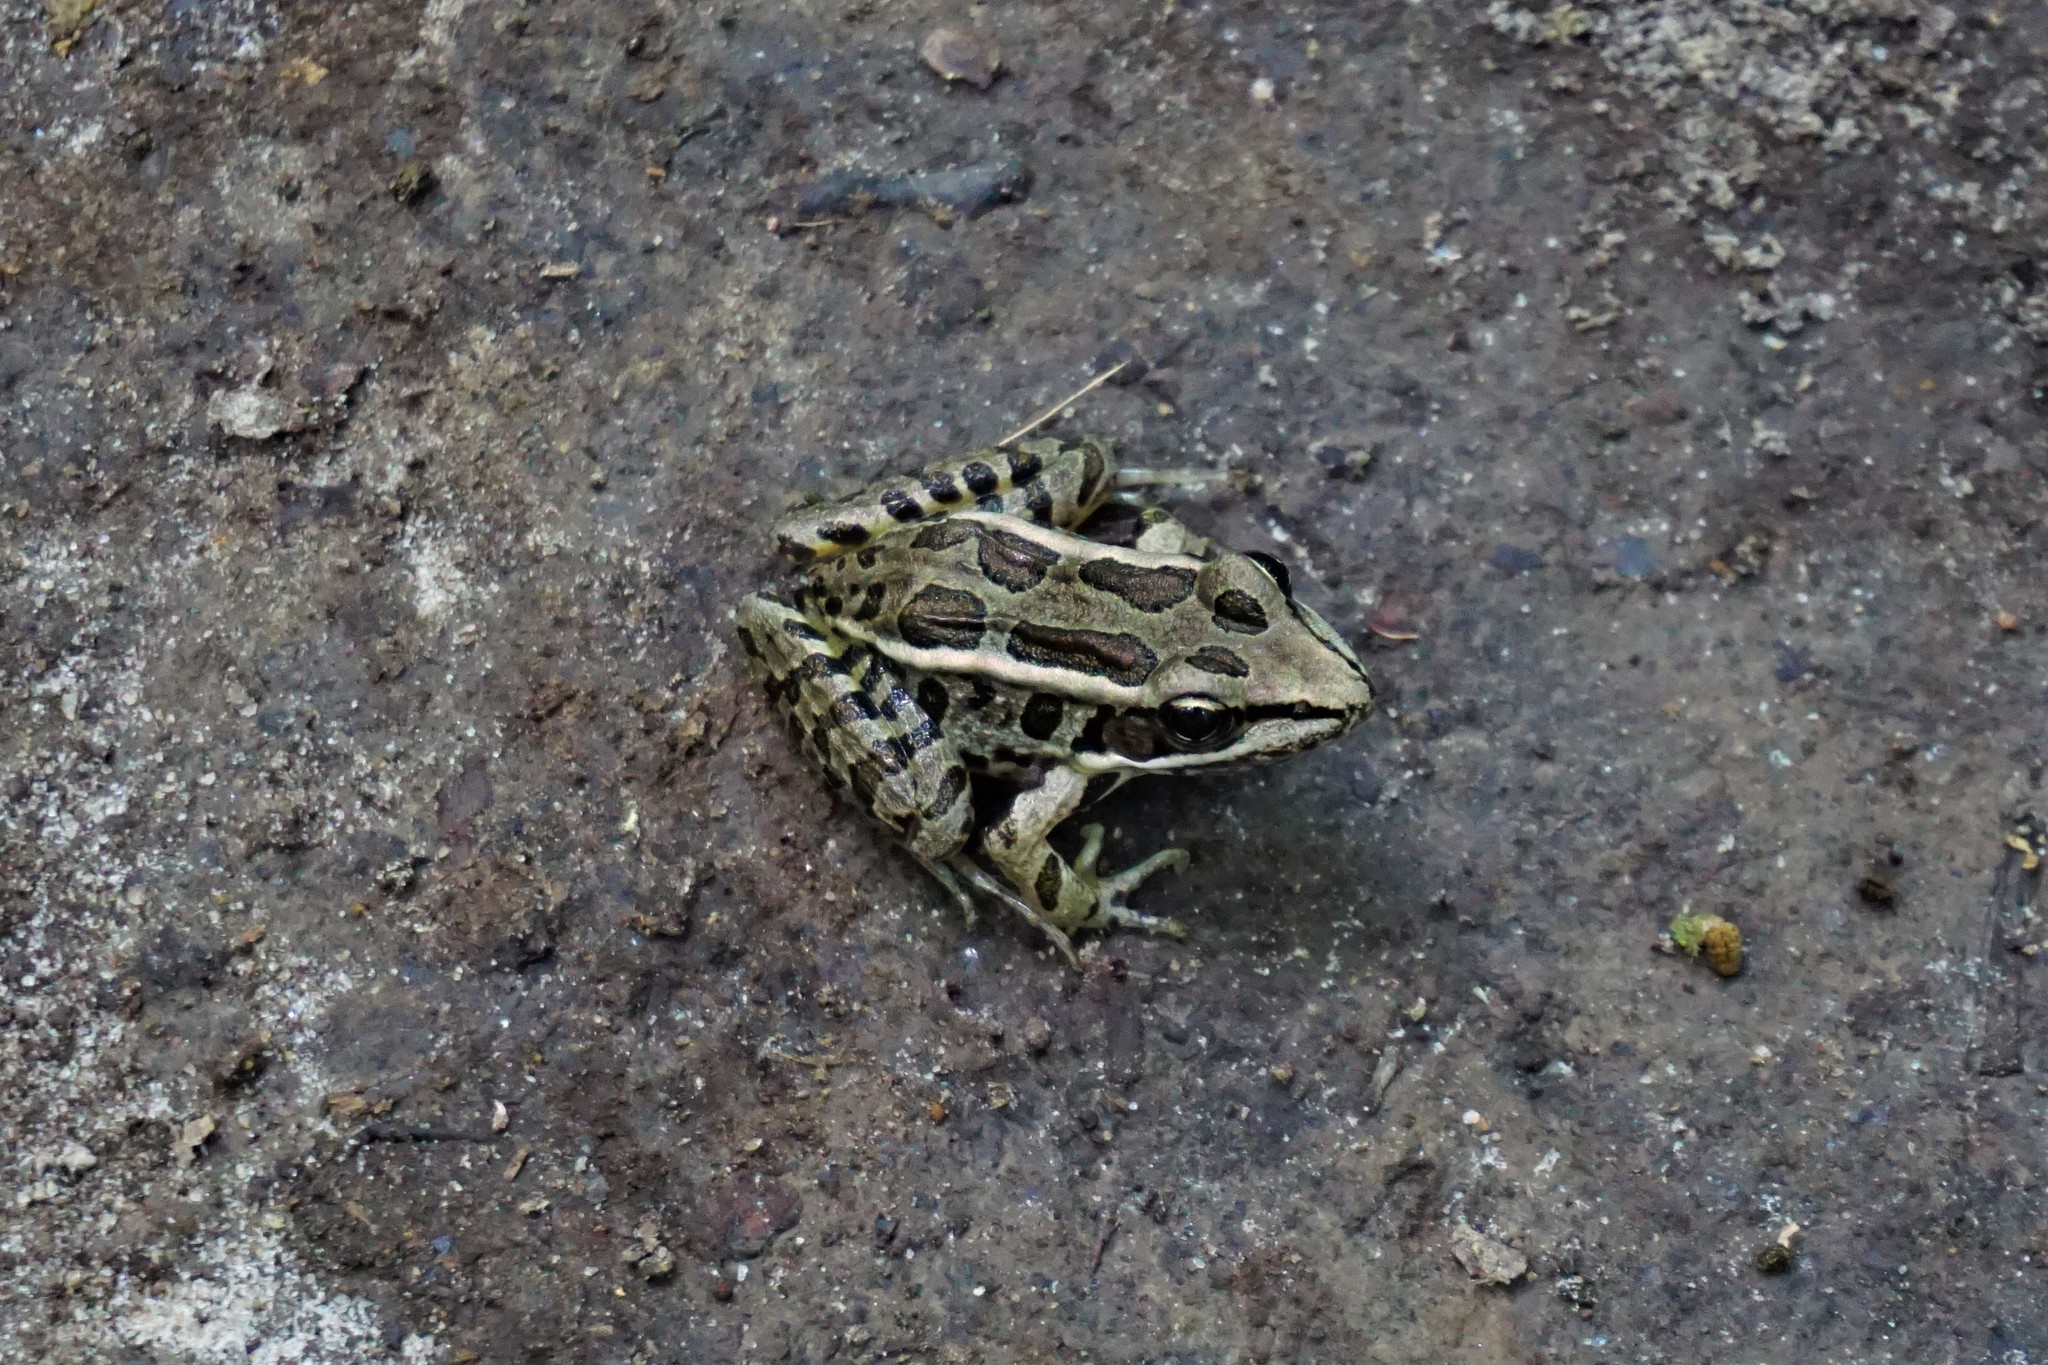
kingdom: Animalia
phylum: Chordata
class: Amphibia
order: Anura
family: Ranidae
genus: Lithobates
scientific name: Lithobates palustris
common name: Pickerel frog
